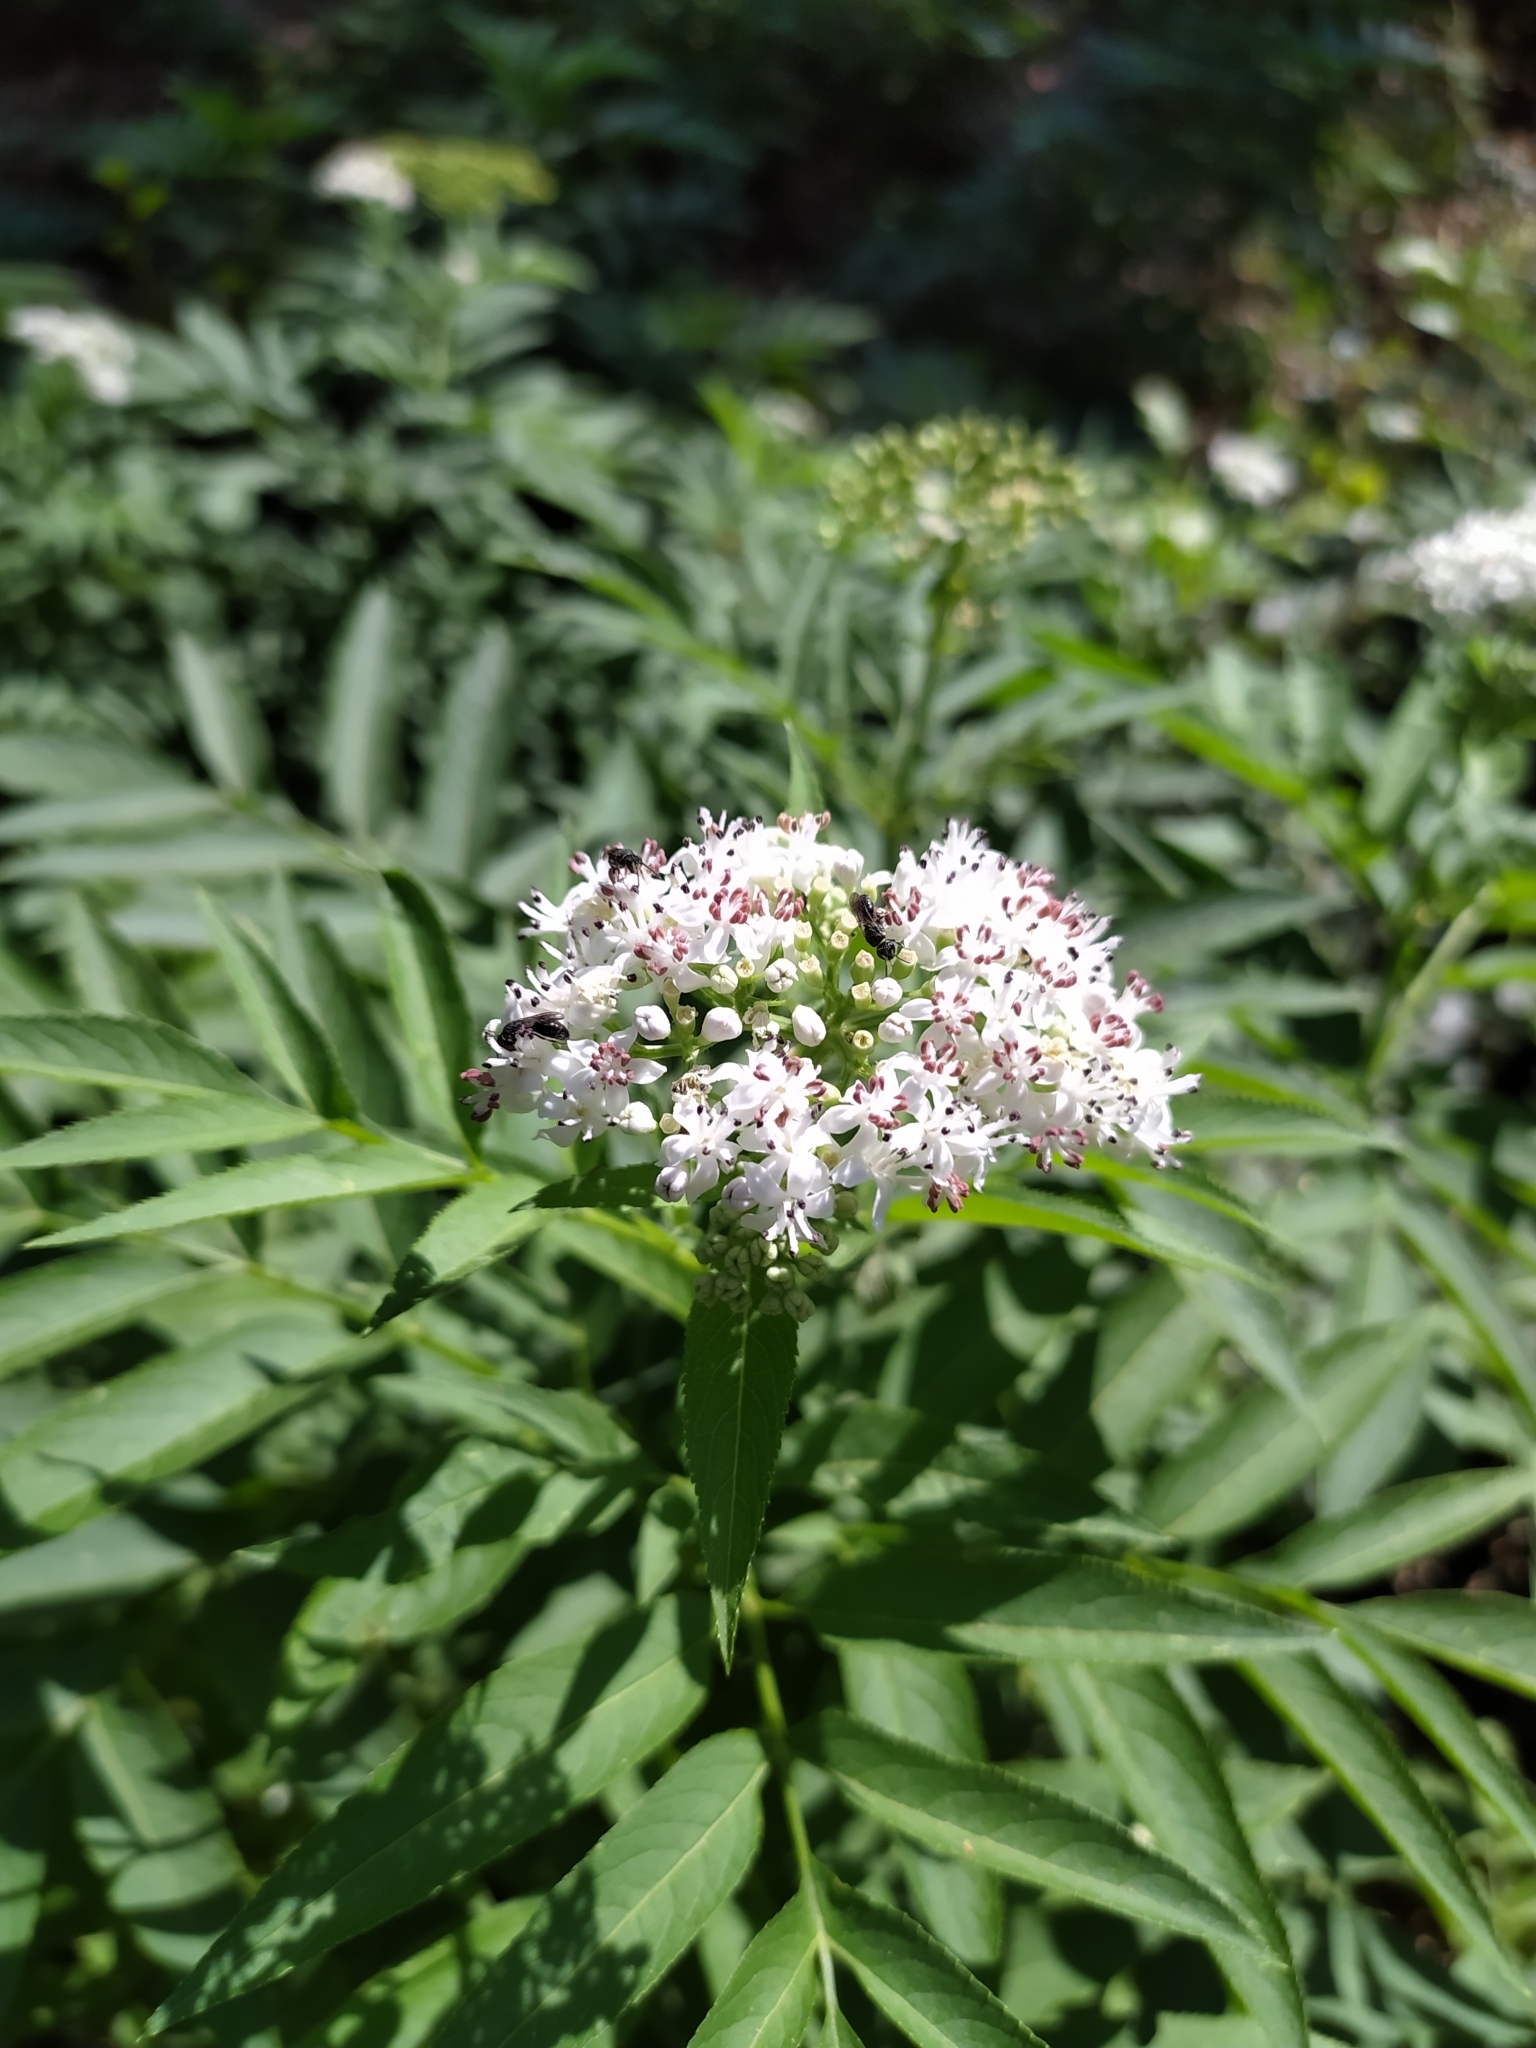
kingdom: Plantae
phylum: Tracheophyta
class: Magnoliopsida
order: Dipsacales
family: Viburnaceae
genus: Sambucus
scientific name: Sambucus ebulus
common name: Dwarf elder
